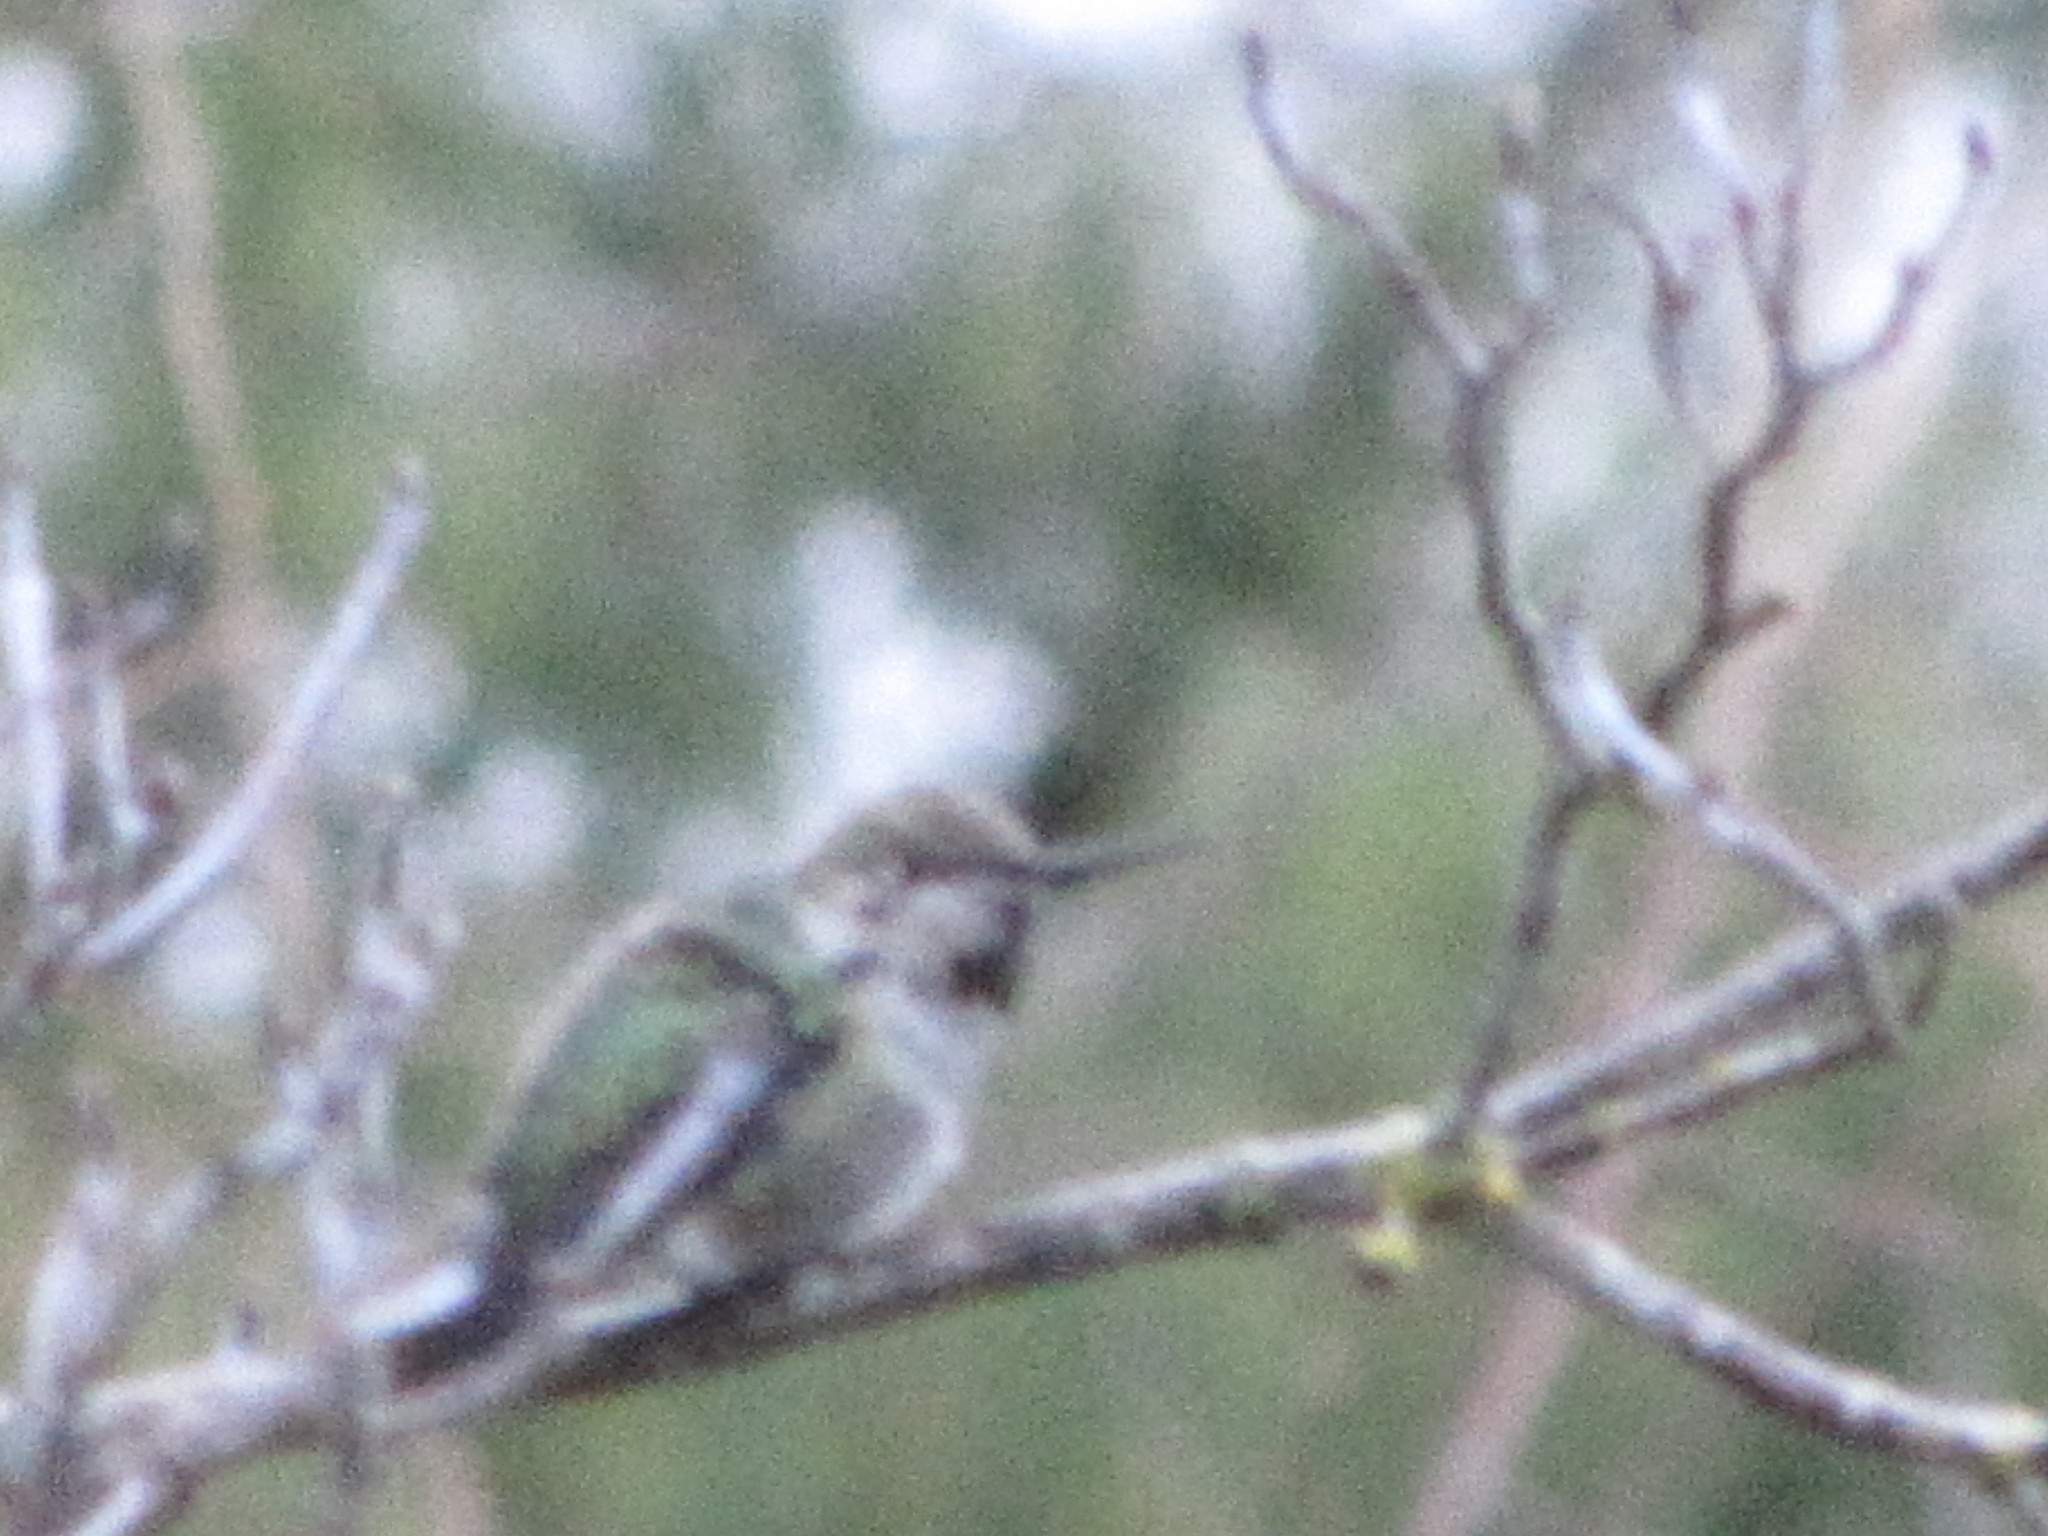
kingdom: Animalia
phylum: Chordata
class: Aves
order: Apodiformes
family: Trochilidae
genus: Calypte
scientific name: Calypte anna
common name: Anna's hummingbird
